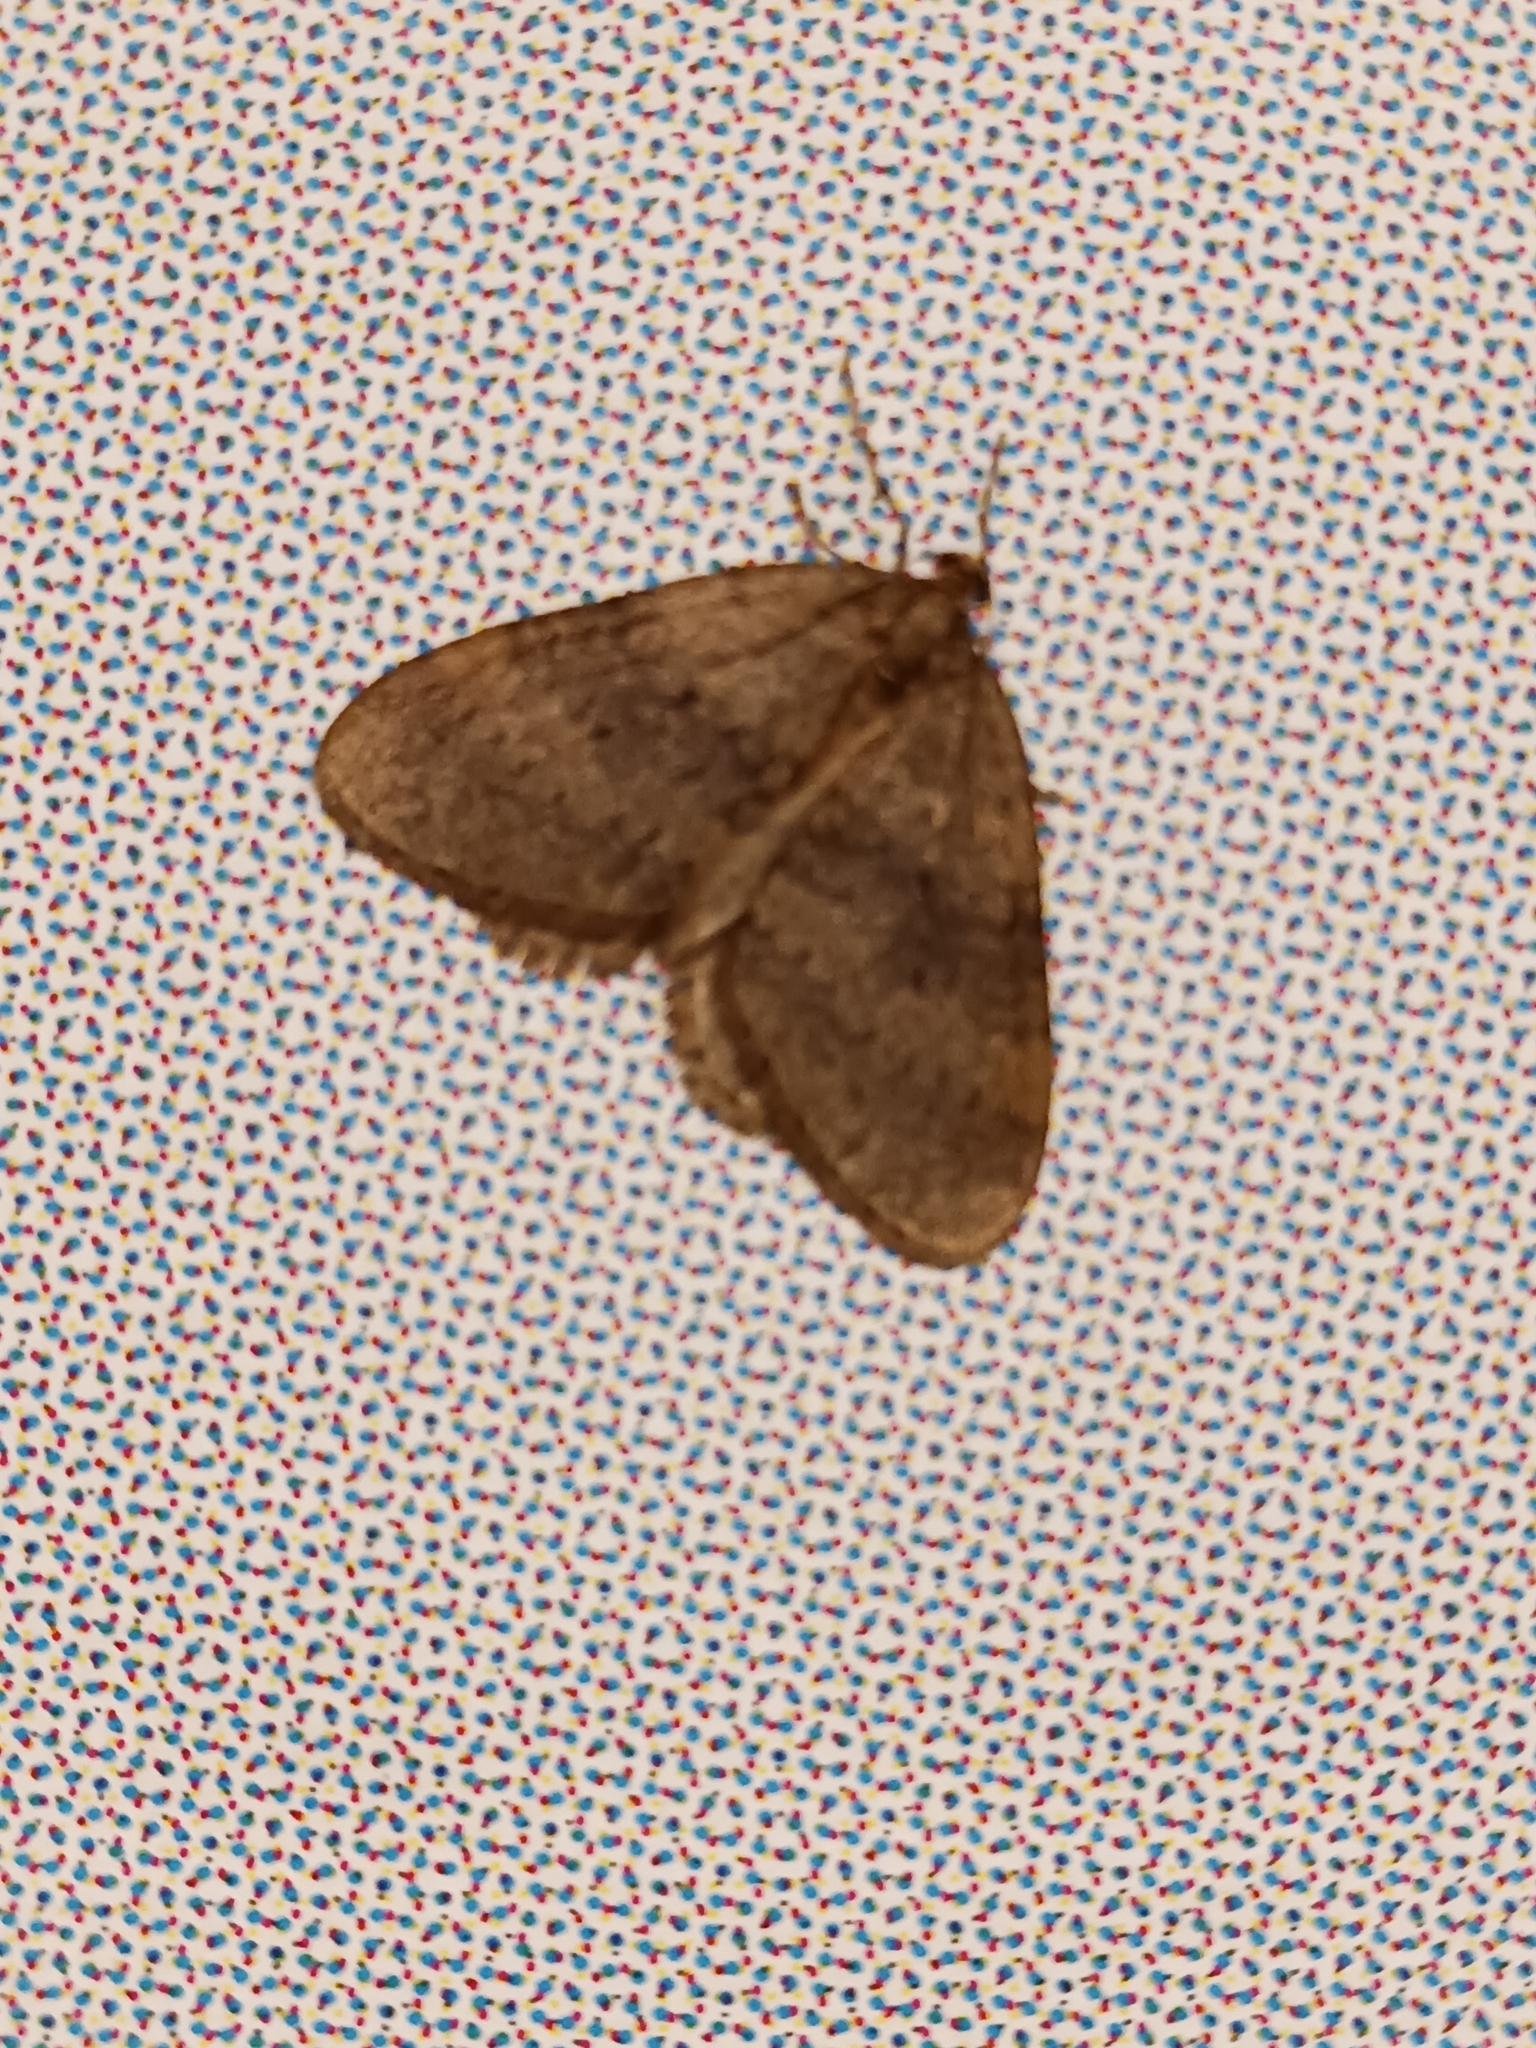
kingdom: Animalia
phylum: Arthropoda
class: Insecta
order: Lepidoptera
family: Geometridae
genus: Operophtera
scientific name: Operophtera brumata
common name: Winter moth
